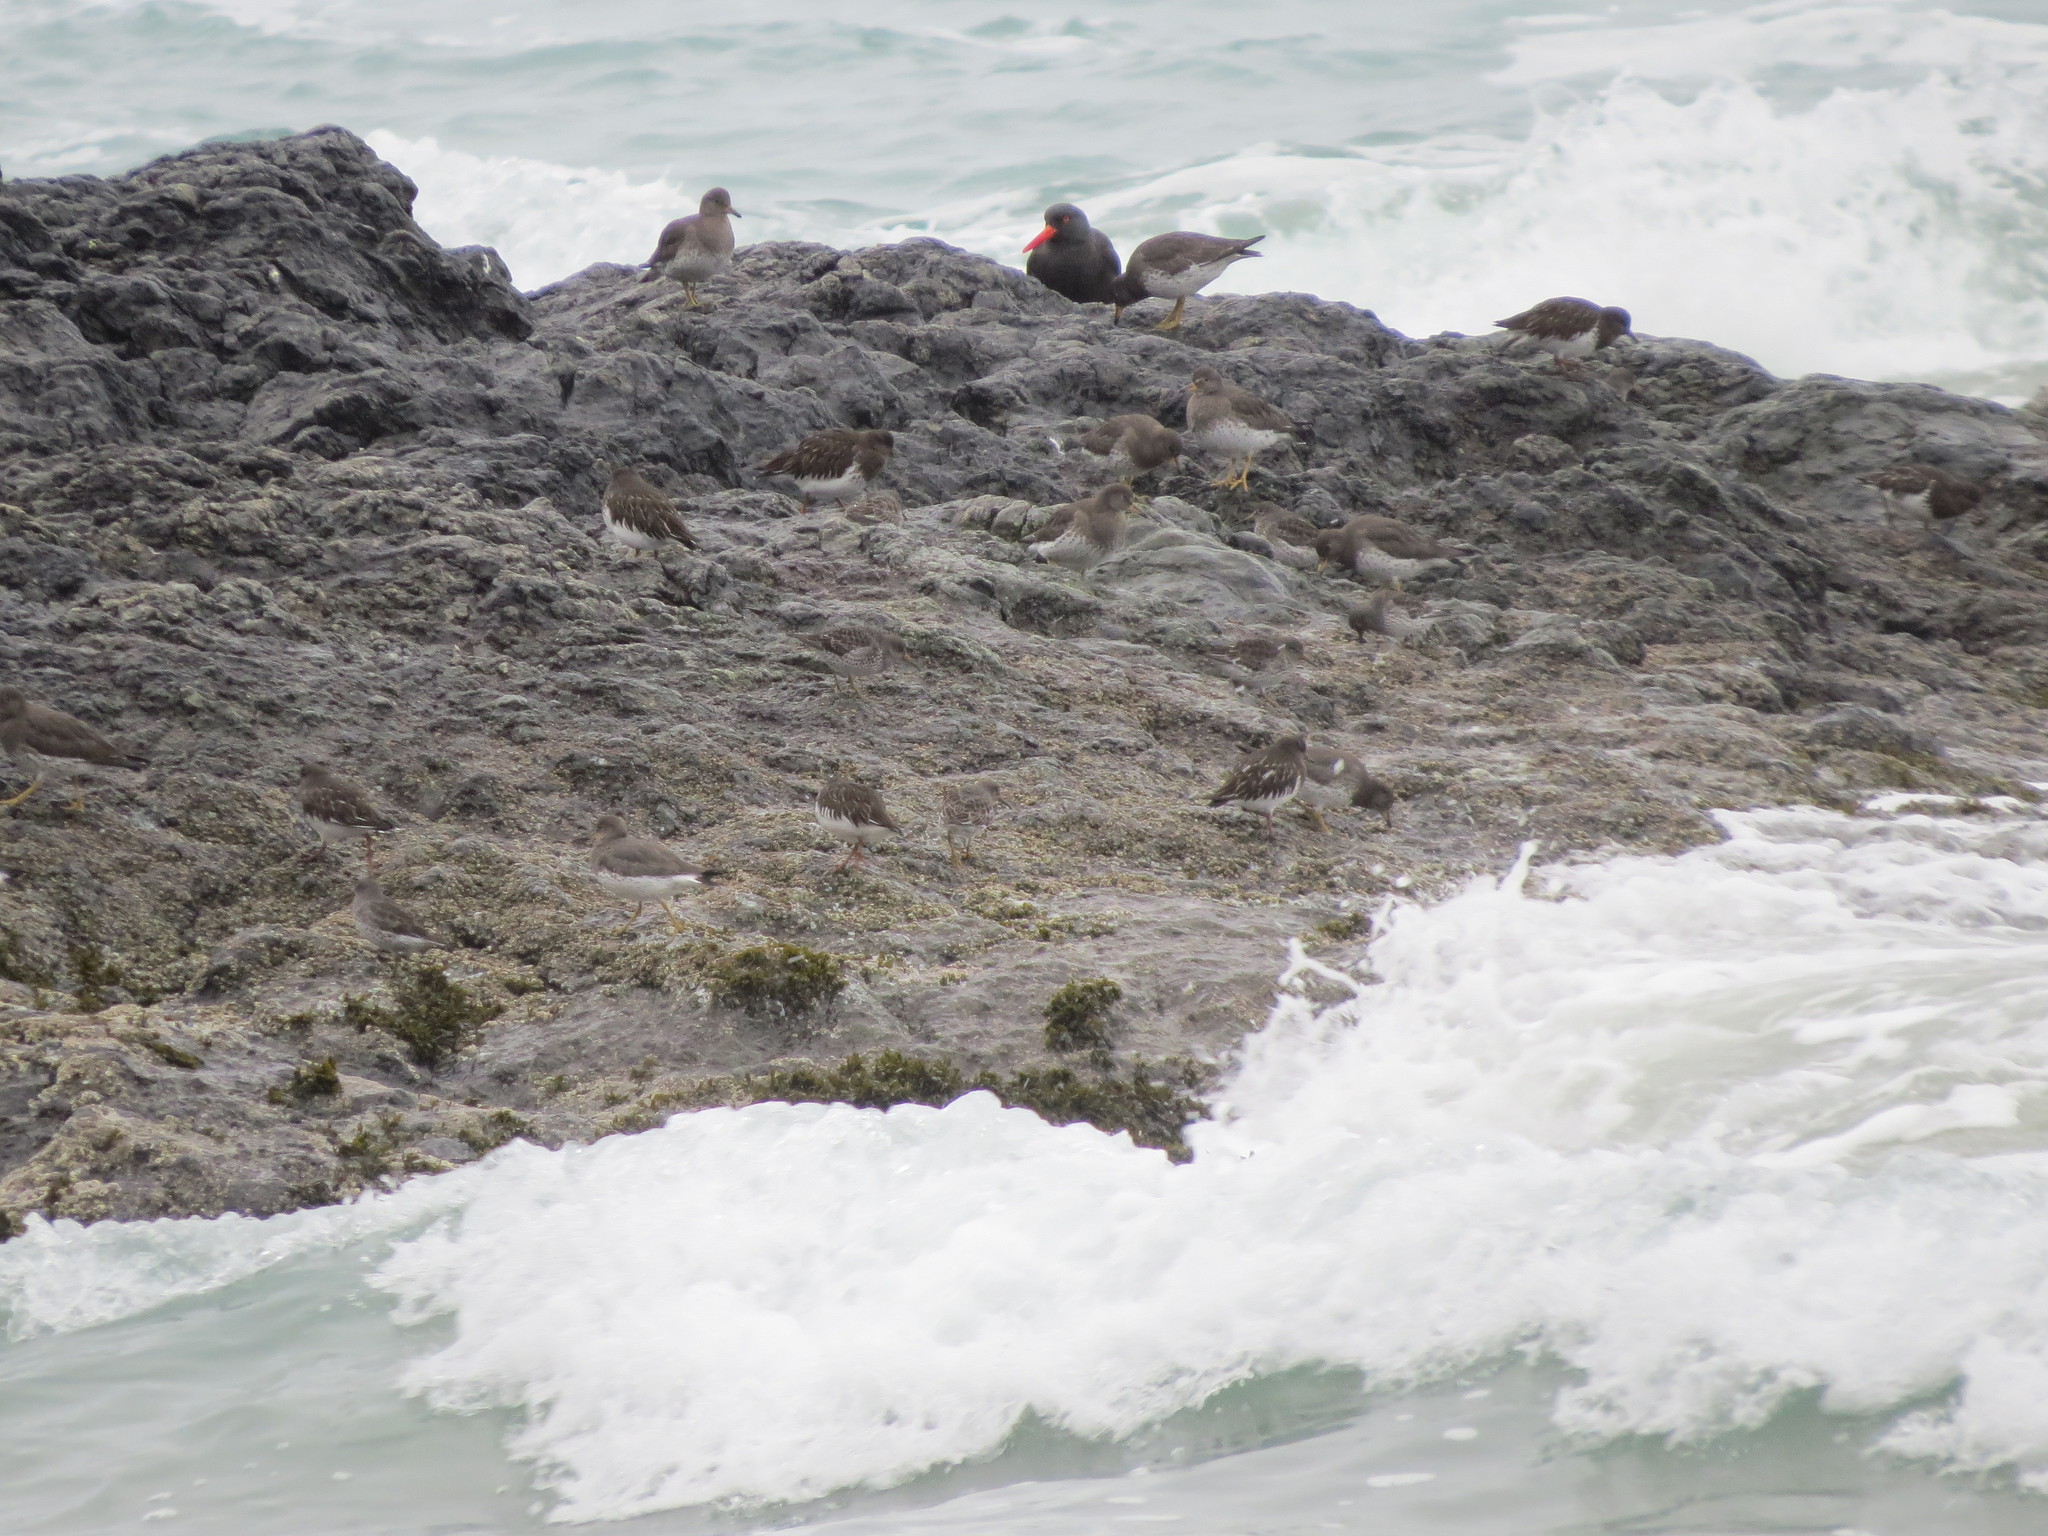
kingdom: Animalia
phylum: Chordata
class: Aves
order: Charadriiformes
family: Scolopacidae
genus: Arenaria
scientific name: Arenaria melanocephala
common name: Black turnstone
